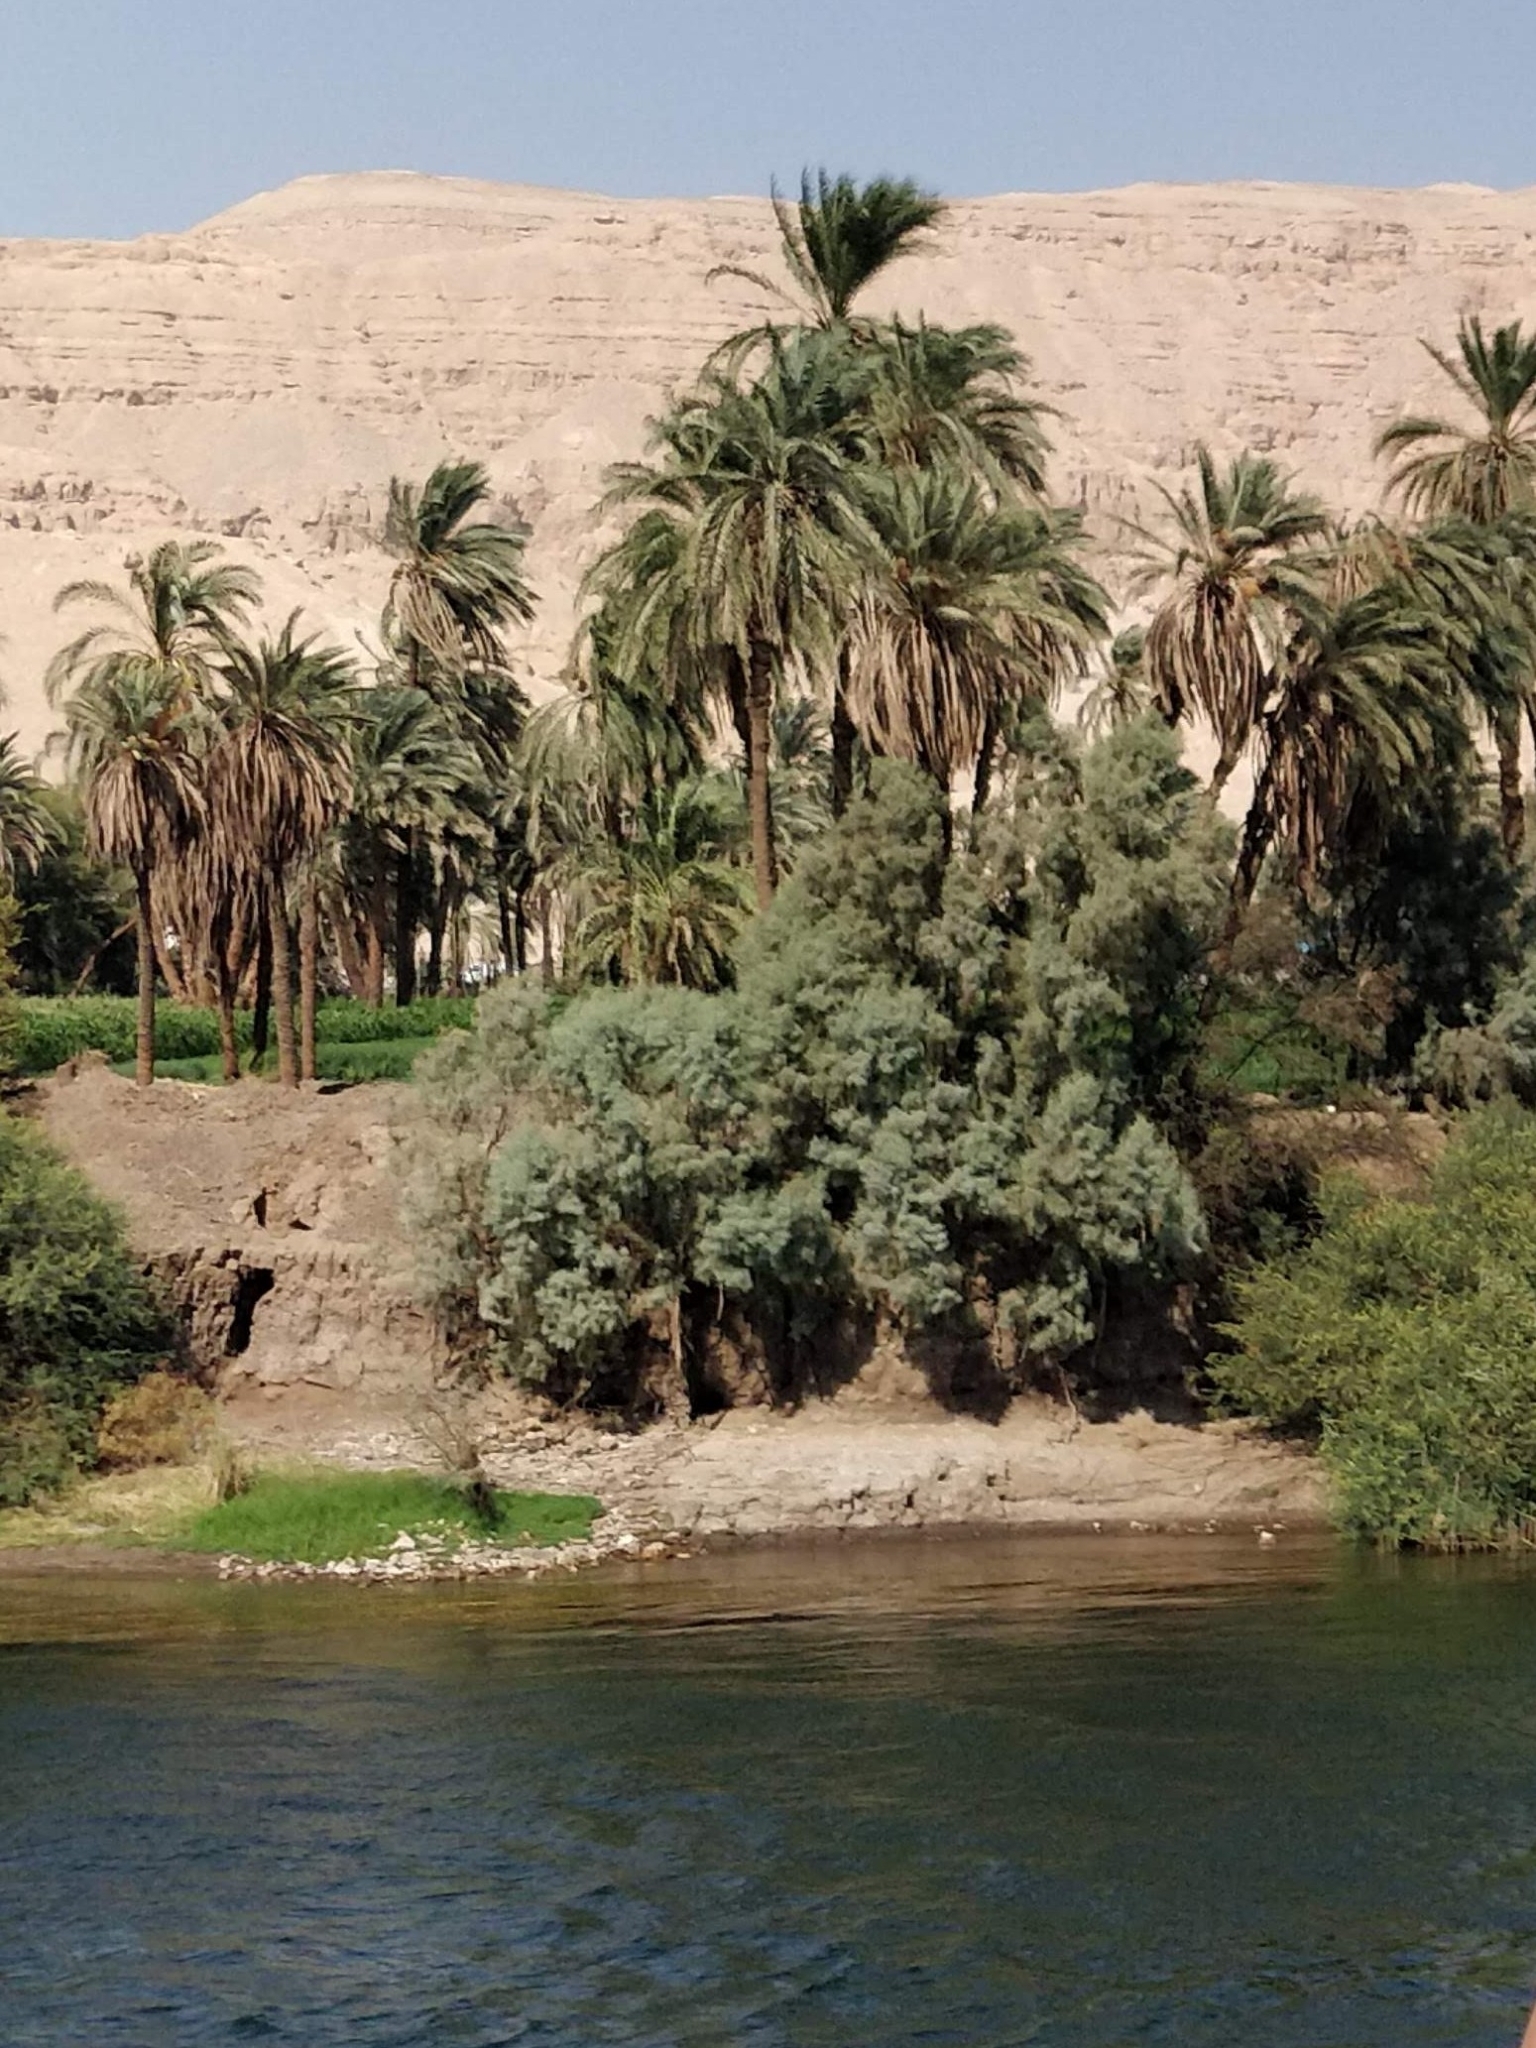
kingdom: Plantae
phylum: Tracheophyta
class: Magnoliopsida
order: Caryophyllales
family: Tamaricaceae
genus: Tamarix
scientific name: Tamarix nilotica
